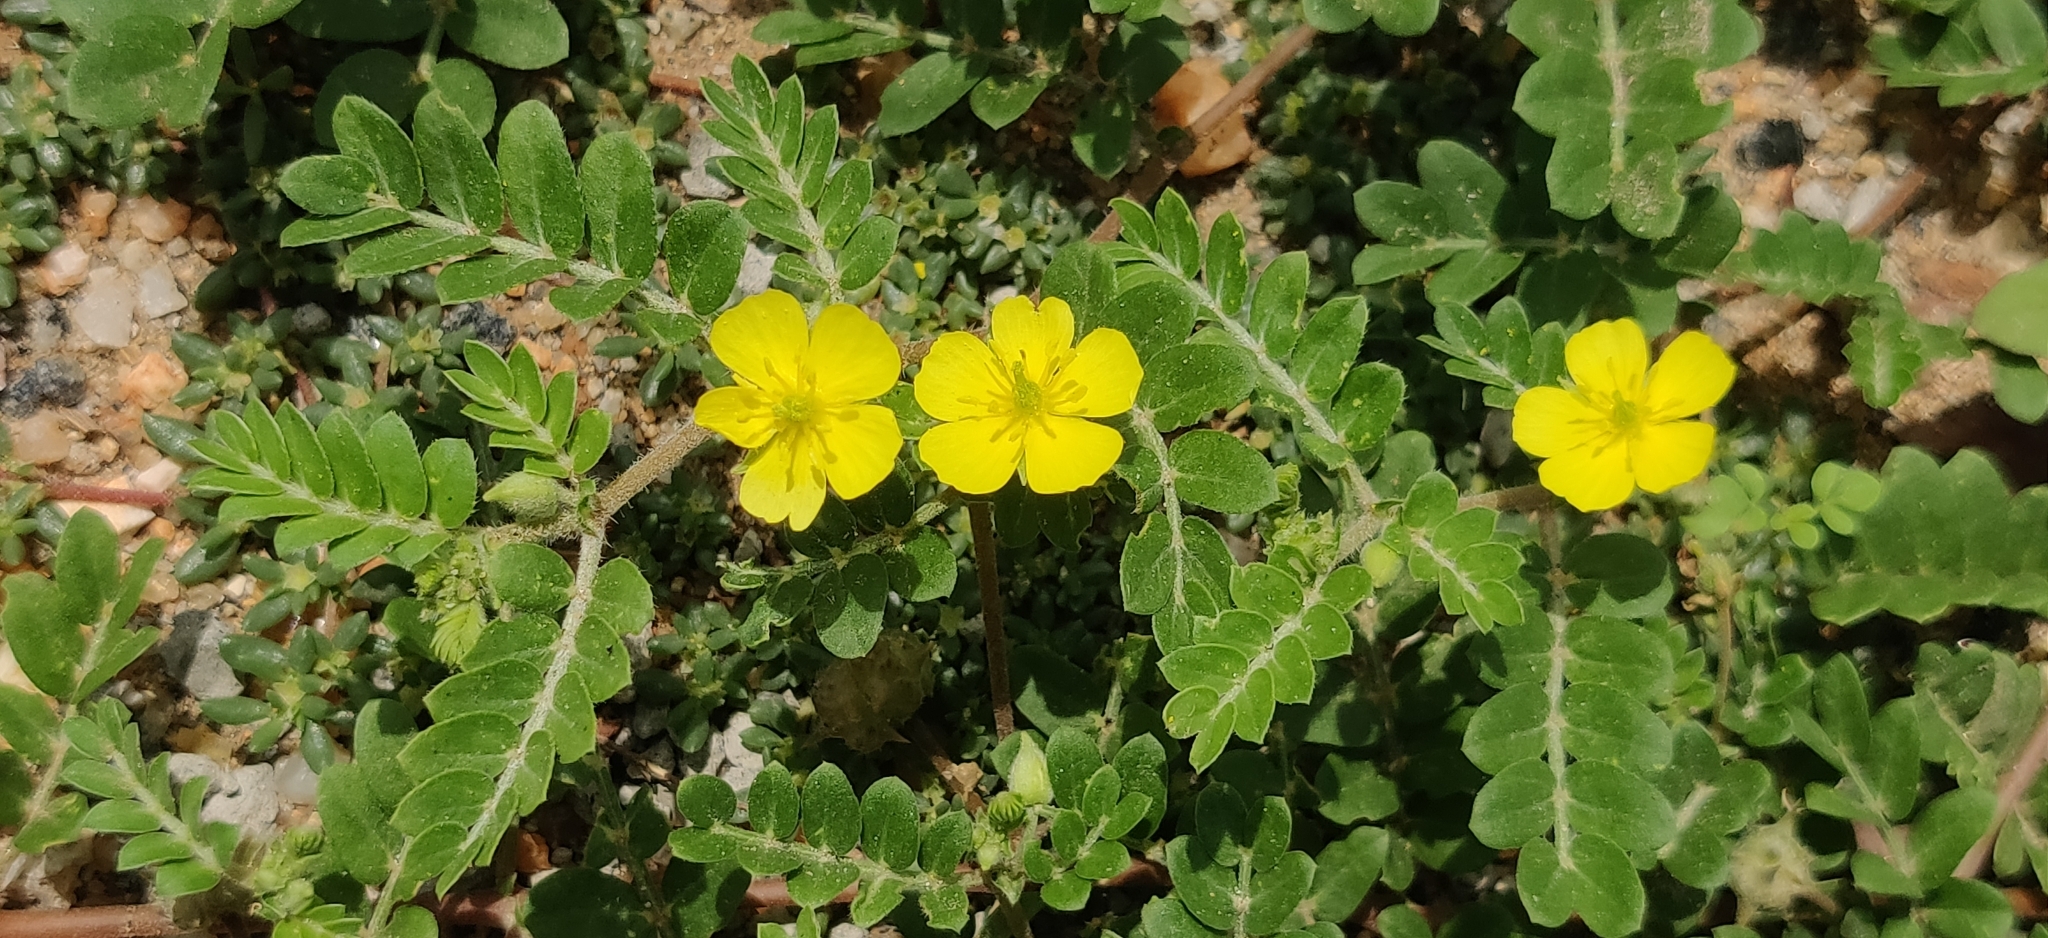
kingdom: Plantae
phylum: Tracheophyta
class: Magnoliopsida
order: Zygophyllales
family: Zygophyllaceae
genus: Tribulus
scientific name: Tribulus terrestris
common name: Puncturevine
